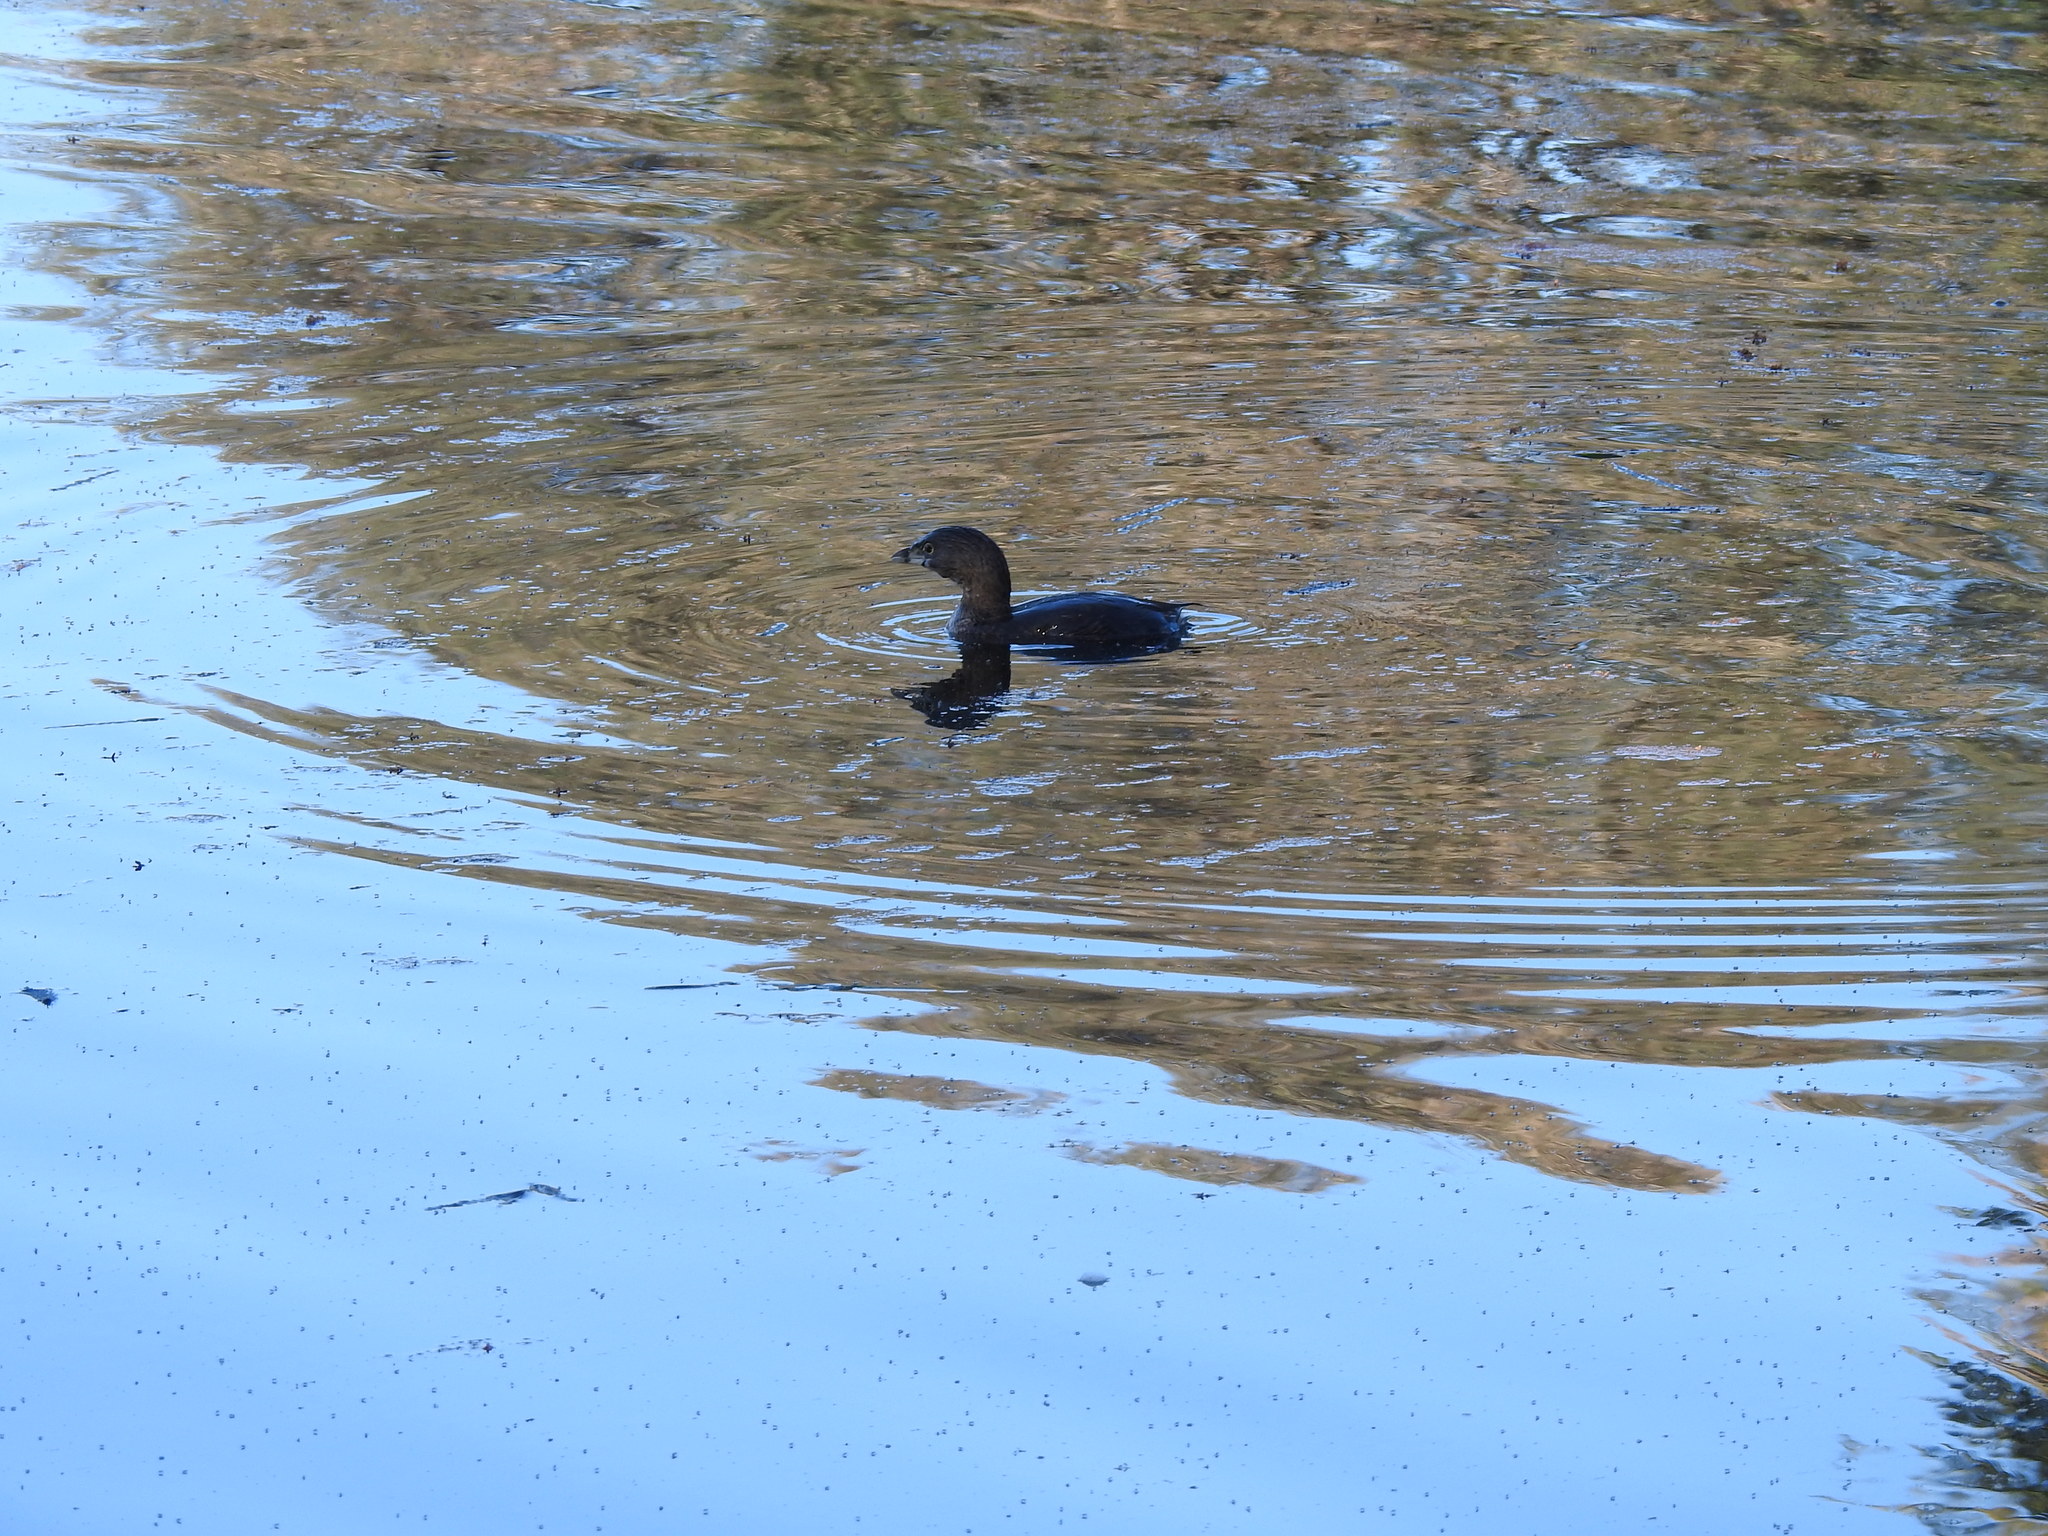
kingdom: Animalia
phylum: Chordata
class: Aves
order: Podicipediformes
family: Podicipedidae
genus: Podilymbus
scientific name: Podilymbus podiceps
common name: Pied-billed grebe
